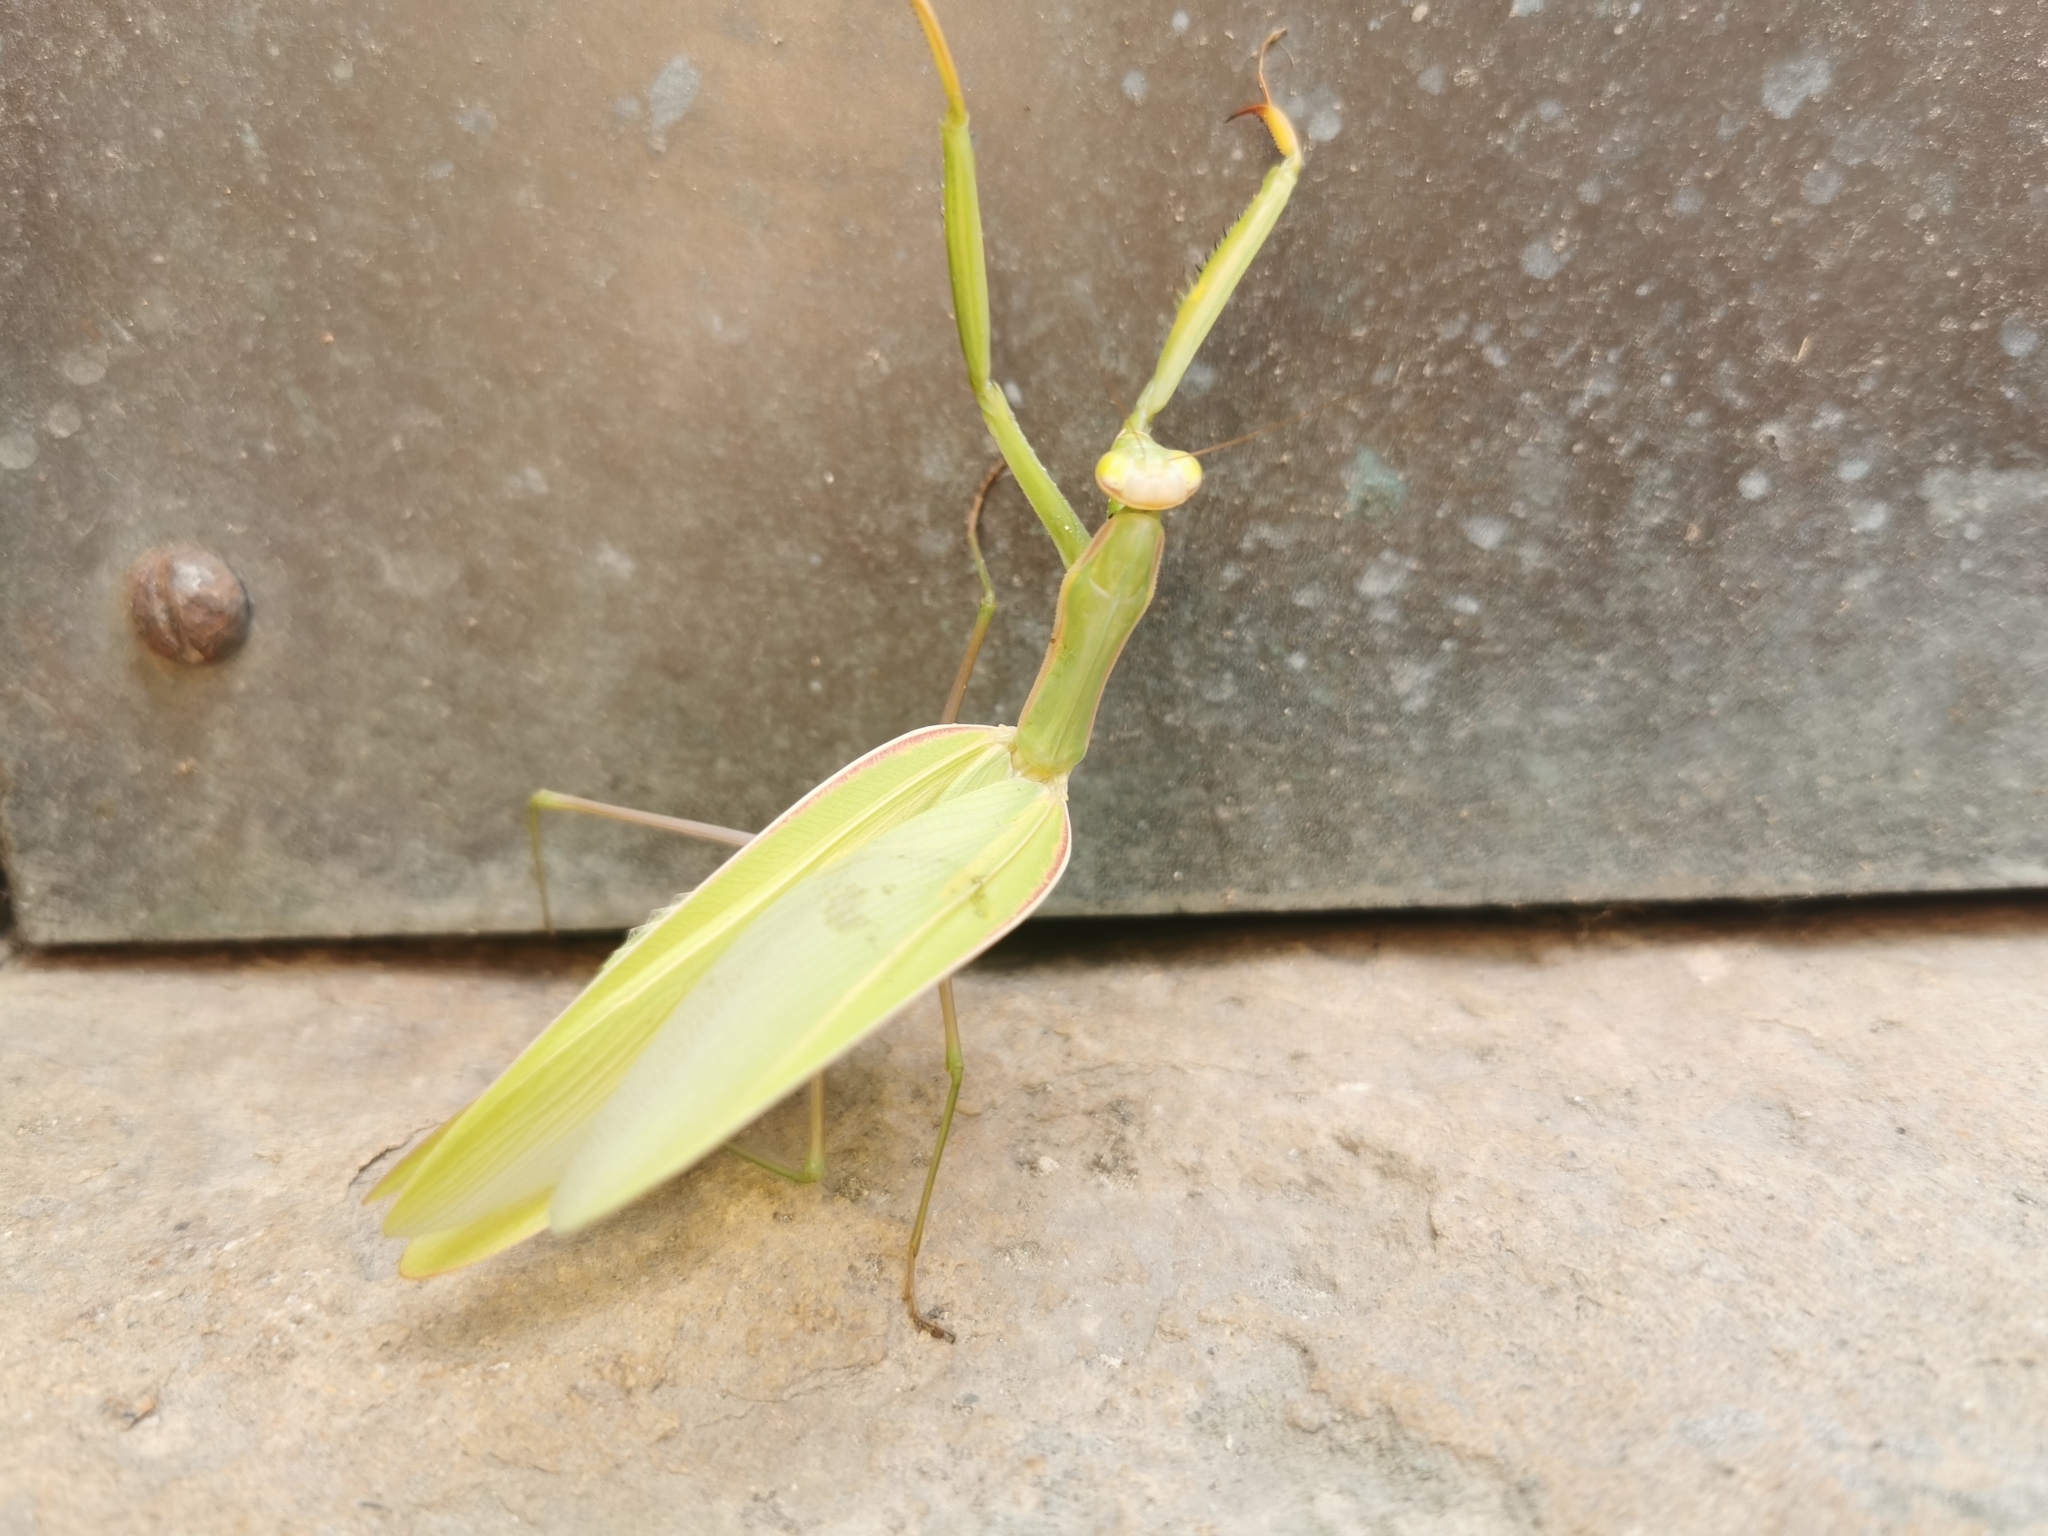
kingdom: Animalia
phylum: Arthropoda
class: Insecta
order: Mantodea
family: Mantidae
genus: Mantis
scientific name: Mantis religiosa
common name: Praying mantis
